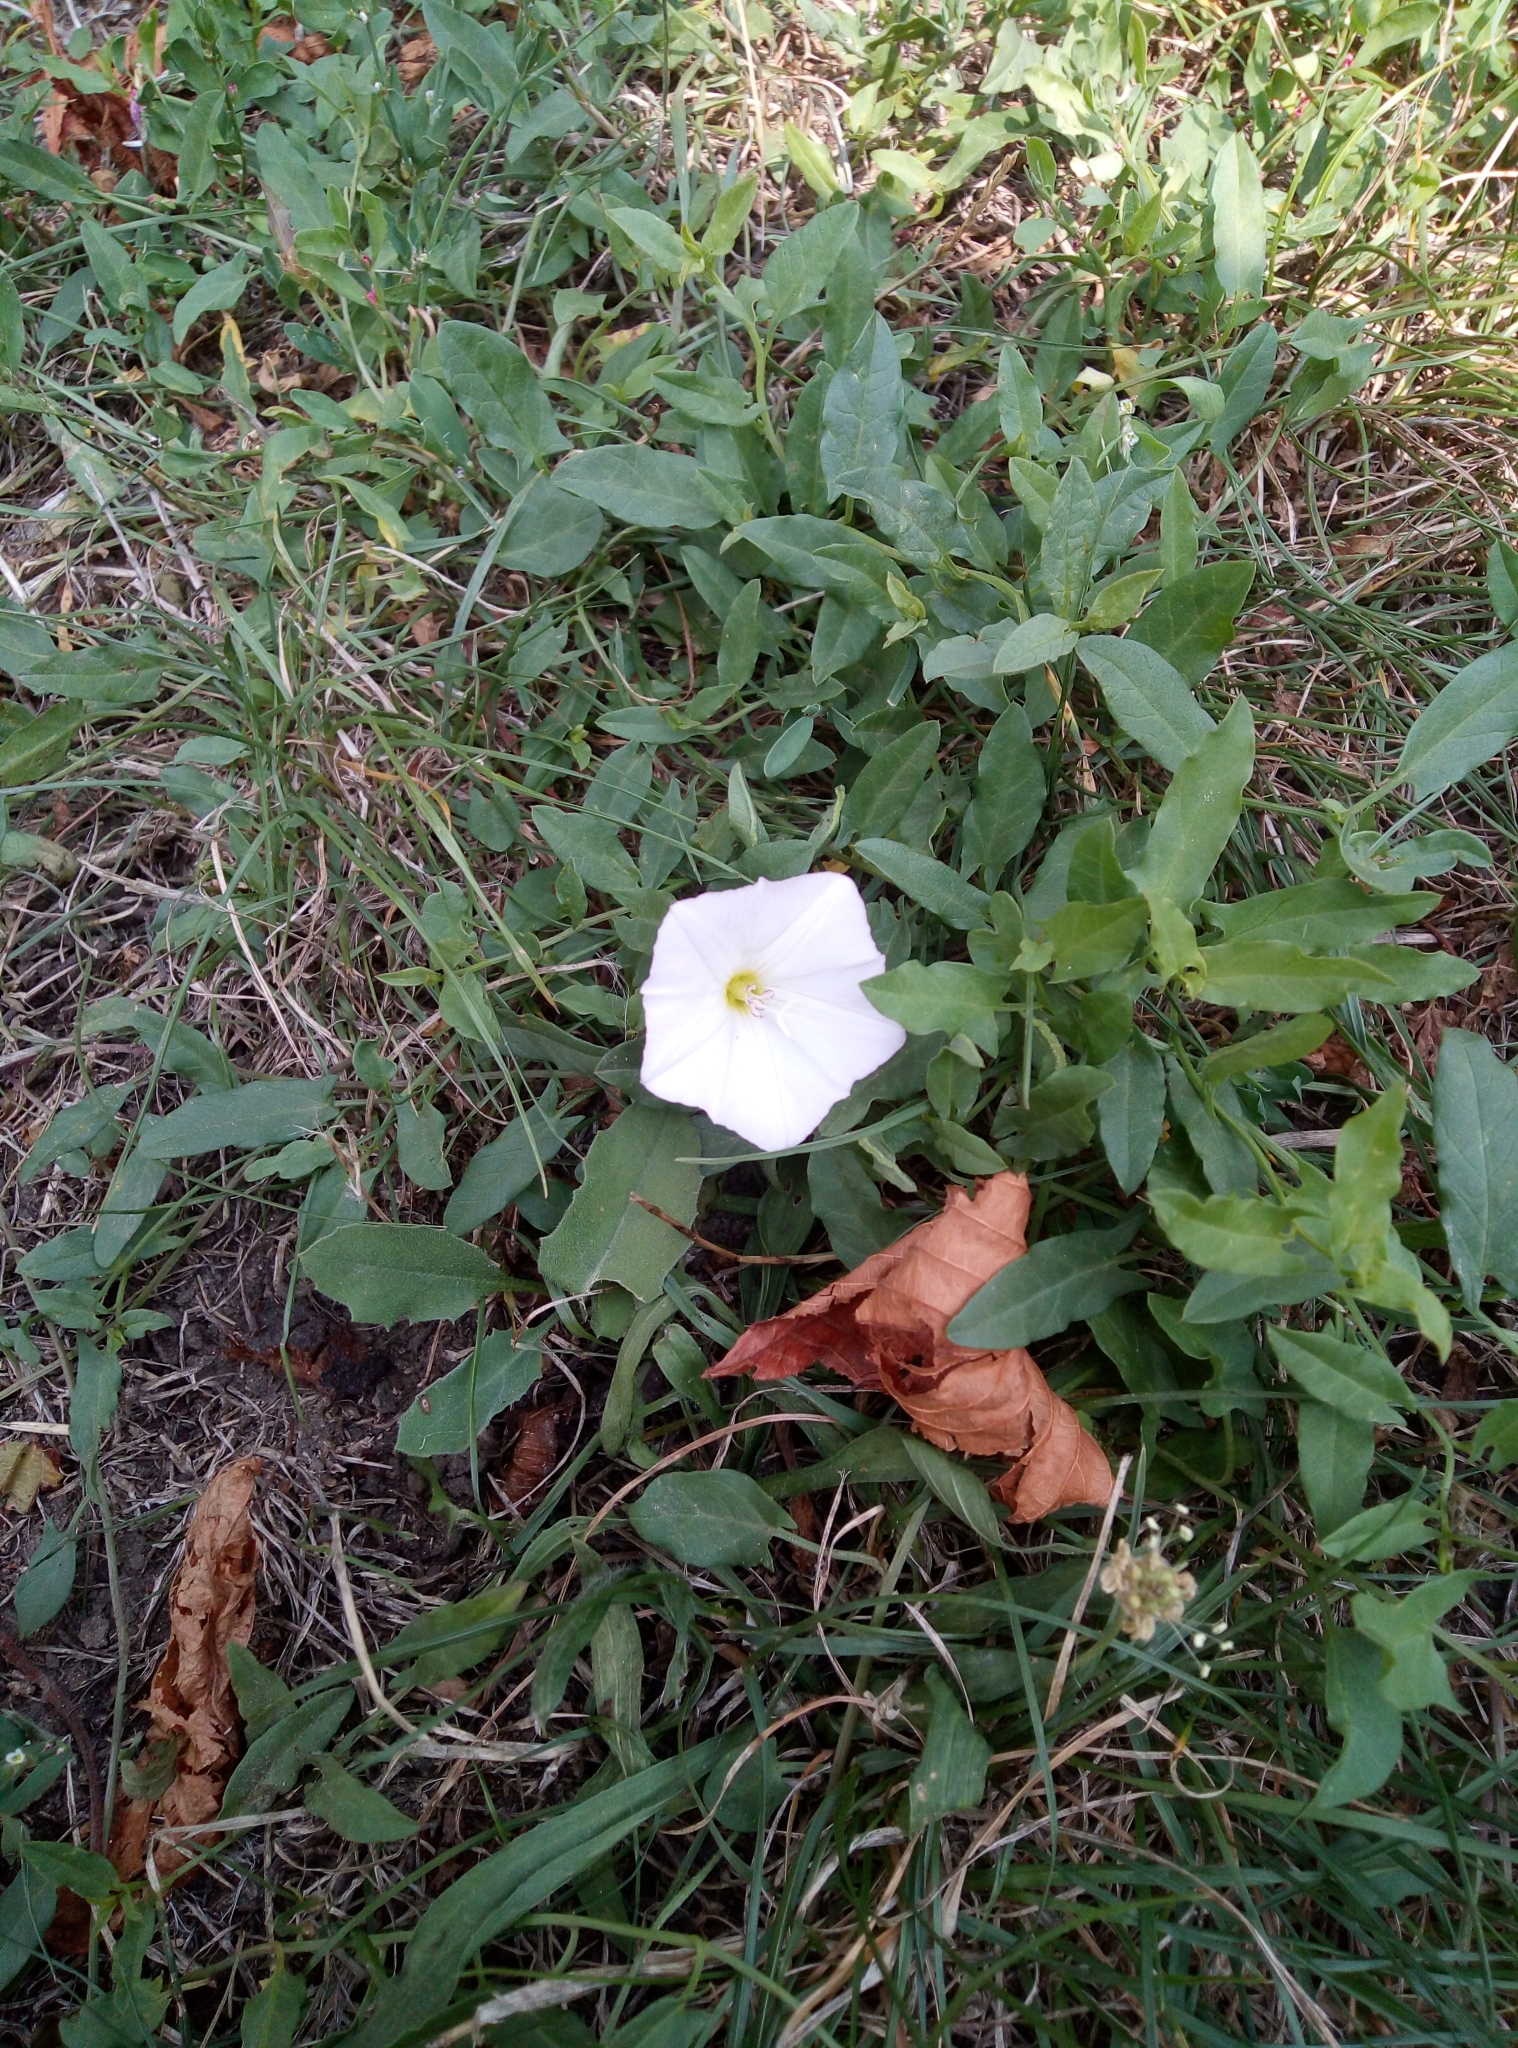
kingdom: Plantae
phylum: Tracheophyta
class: Magnoliopsida
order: Solanales
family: Convolvulaceae
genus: Convolvulus
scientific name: Convolvulus arvensis
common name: Field bindweed
